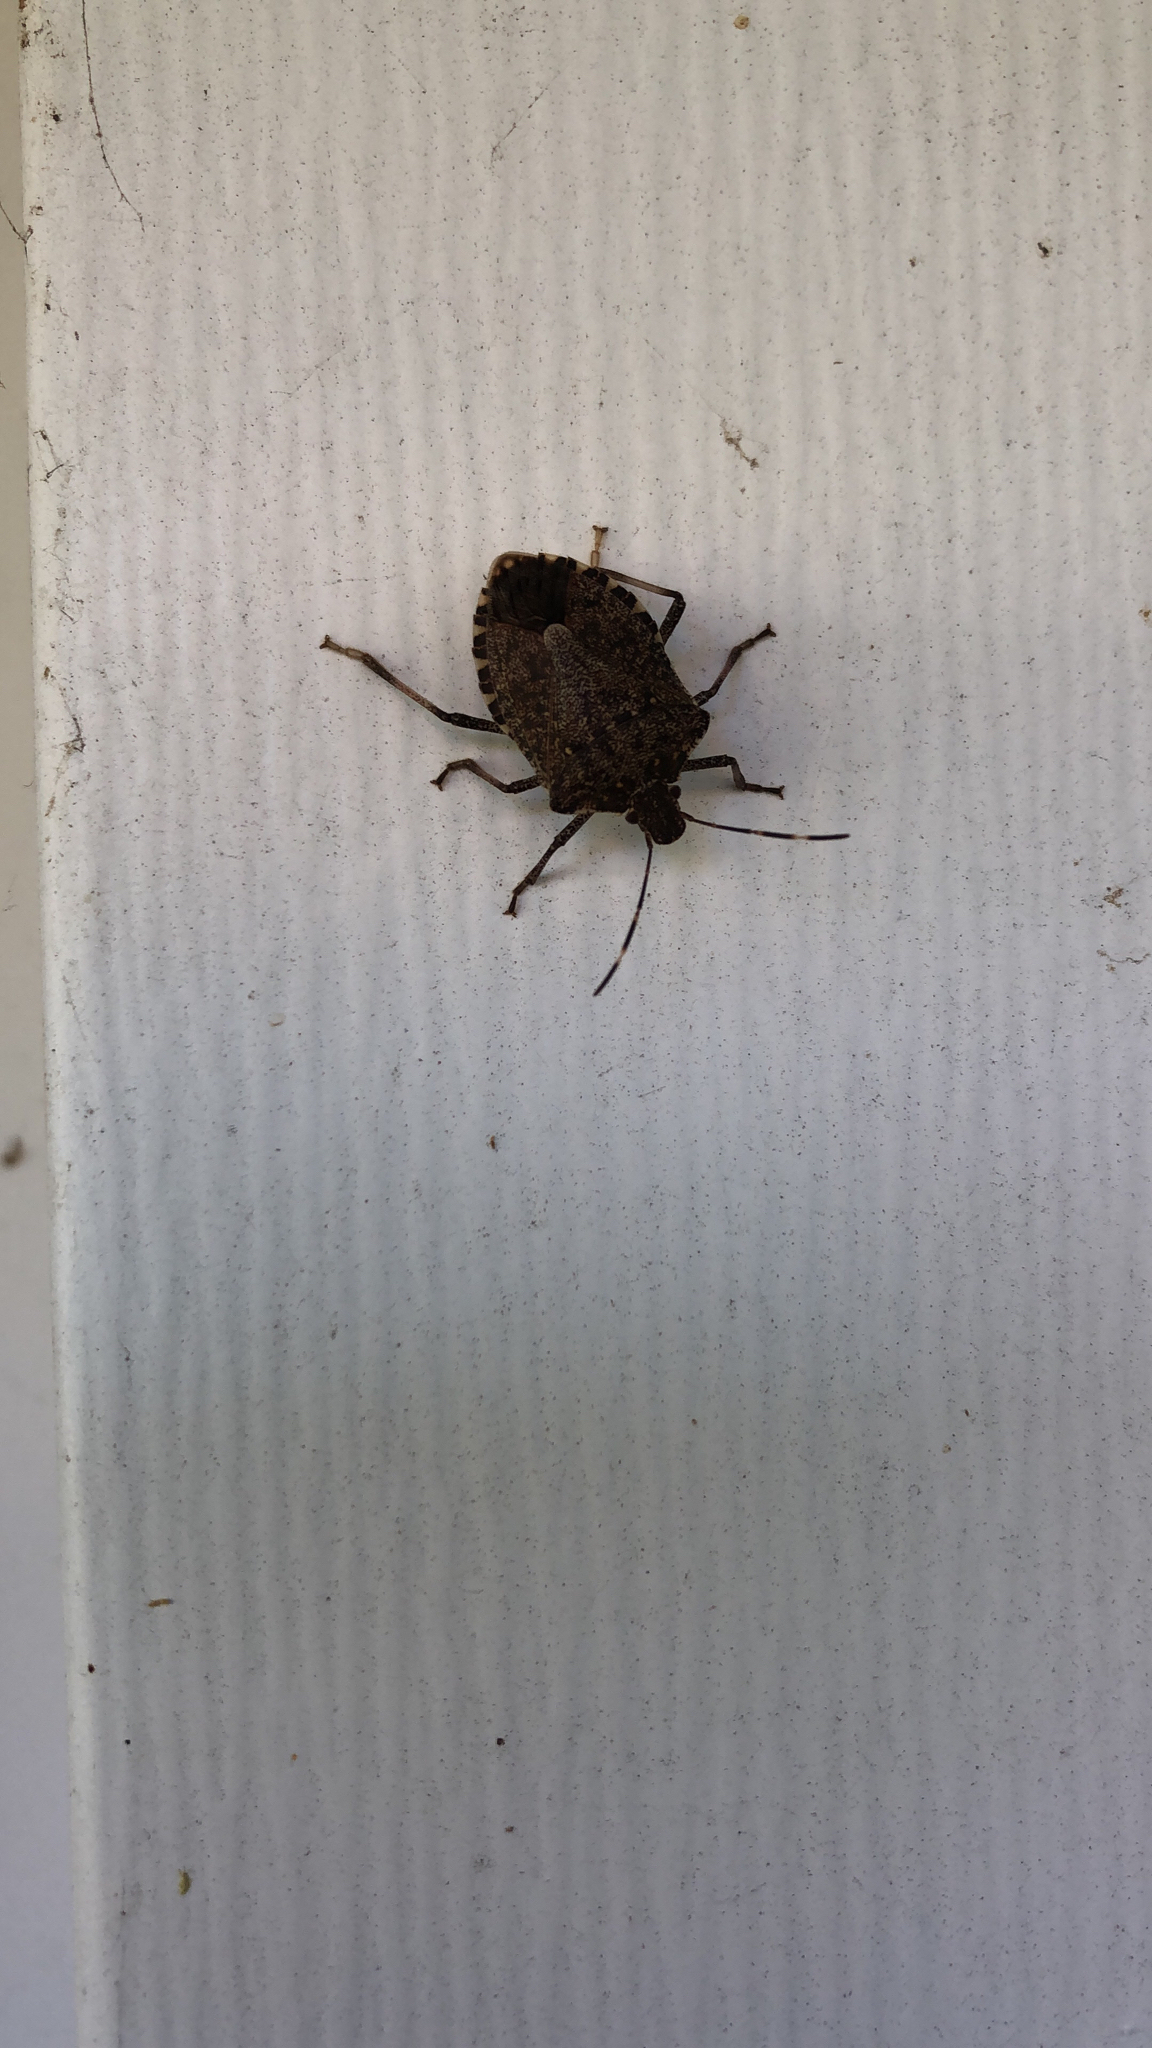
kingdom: Animalia
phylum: Arthropoda
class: Insecta
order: Hemiptera
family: Pentatomidae
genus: Halyomorpha
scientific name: Halyomorpha halys
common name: Brown marmorated stink bug
